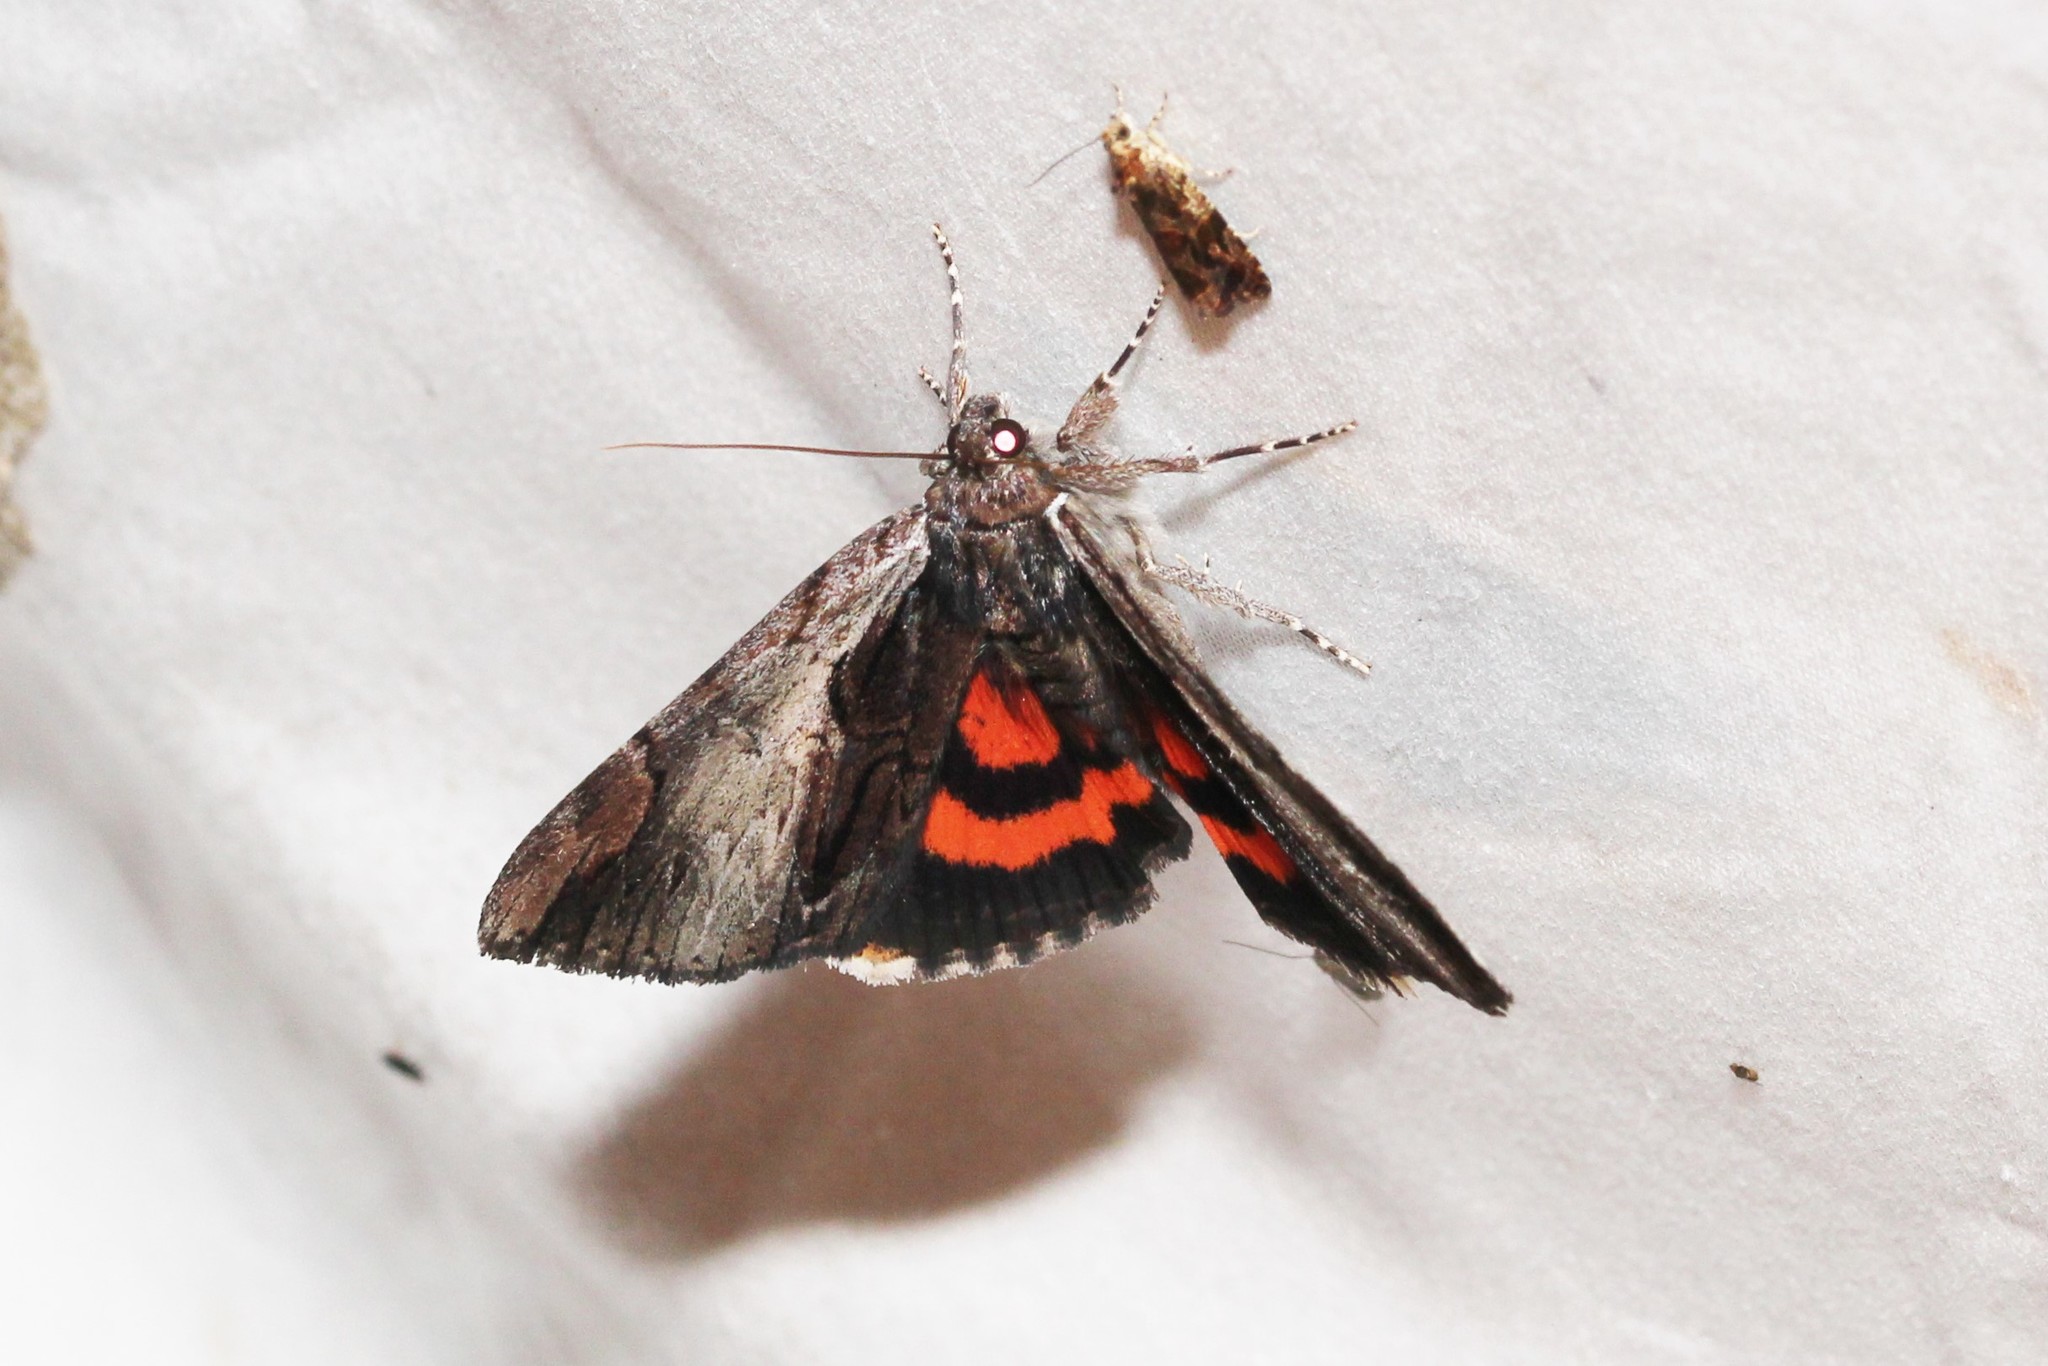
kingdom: Animalia
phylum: Arthropoda
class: Insecta
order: Lepidoptera
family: Erebidae
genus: Catocala
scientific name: Catocala ultronia
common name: Ultronia underwing
